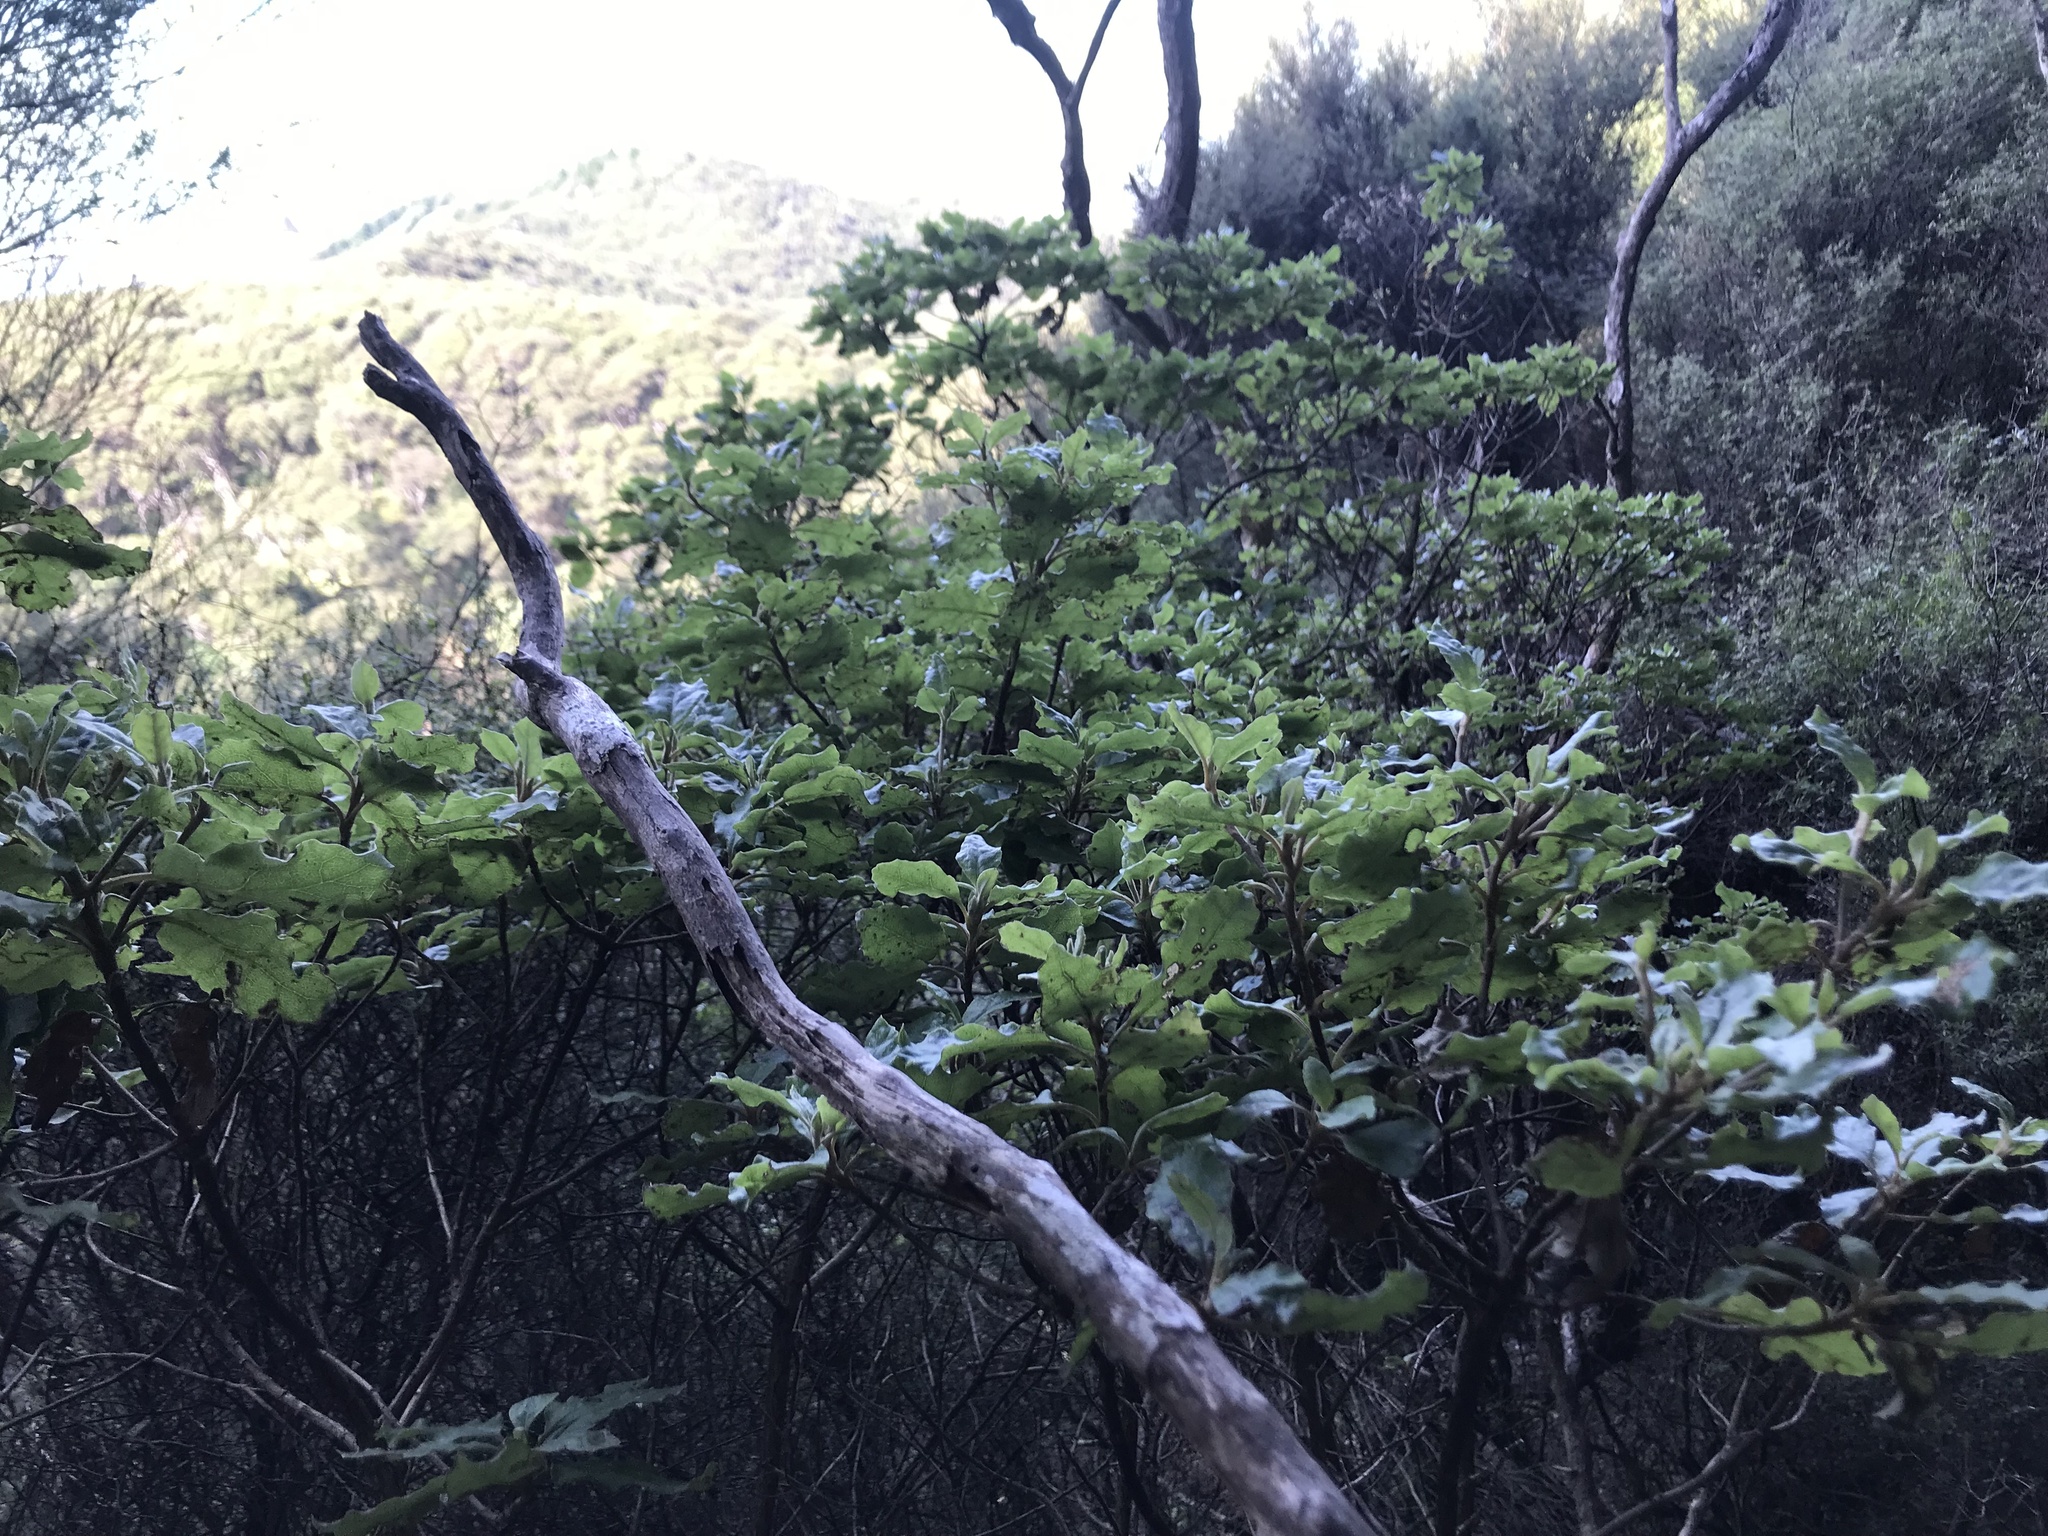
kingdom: Plantae
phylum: Tracheophyta
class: Magnoliopsida
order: Asterales
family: Asteraceae
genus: Brachyglottis
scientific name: Brachyglottis pentacopa
